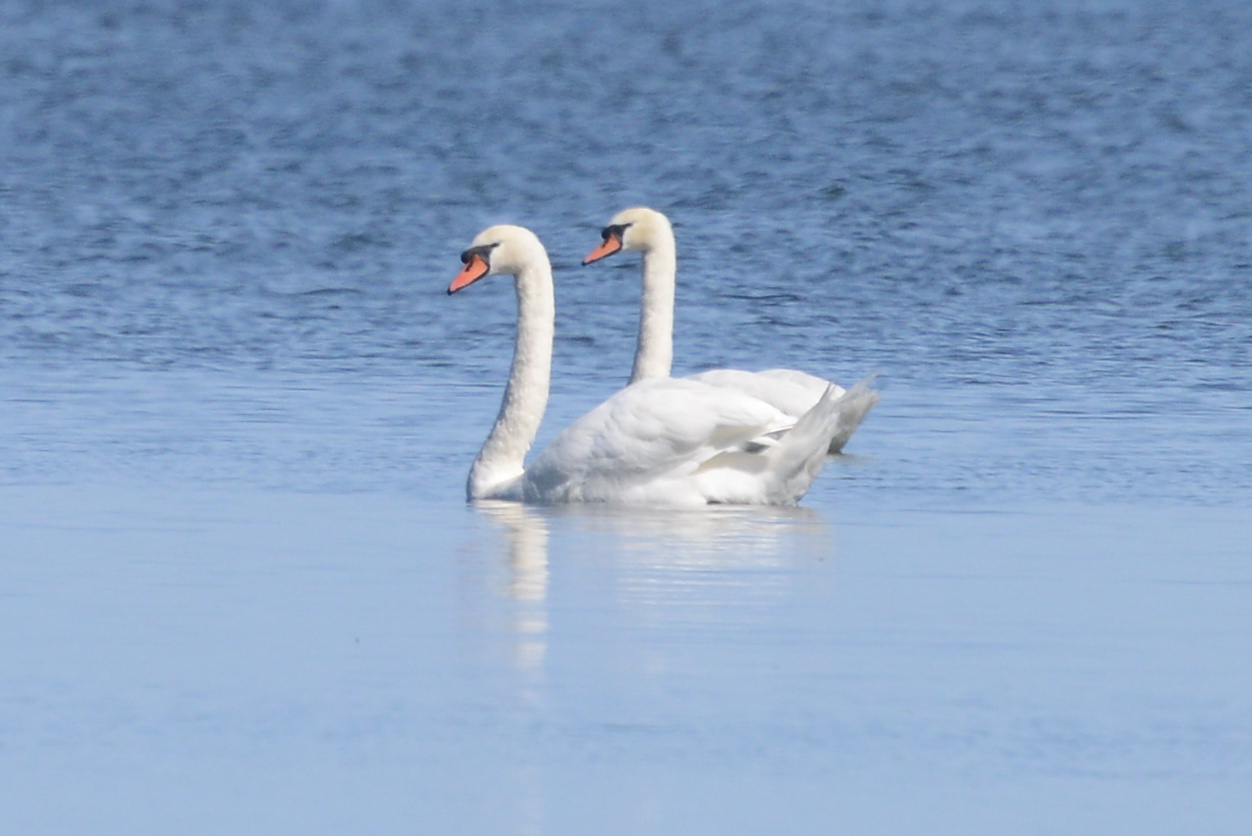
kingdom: Animalia
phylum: Chordata
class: Aves
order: Anseriformes
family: Anatidae
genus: Cygnus
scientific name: Cygnus olor
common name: Mute swan
